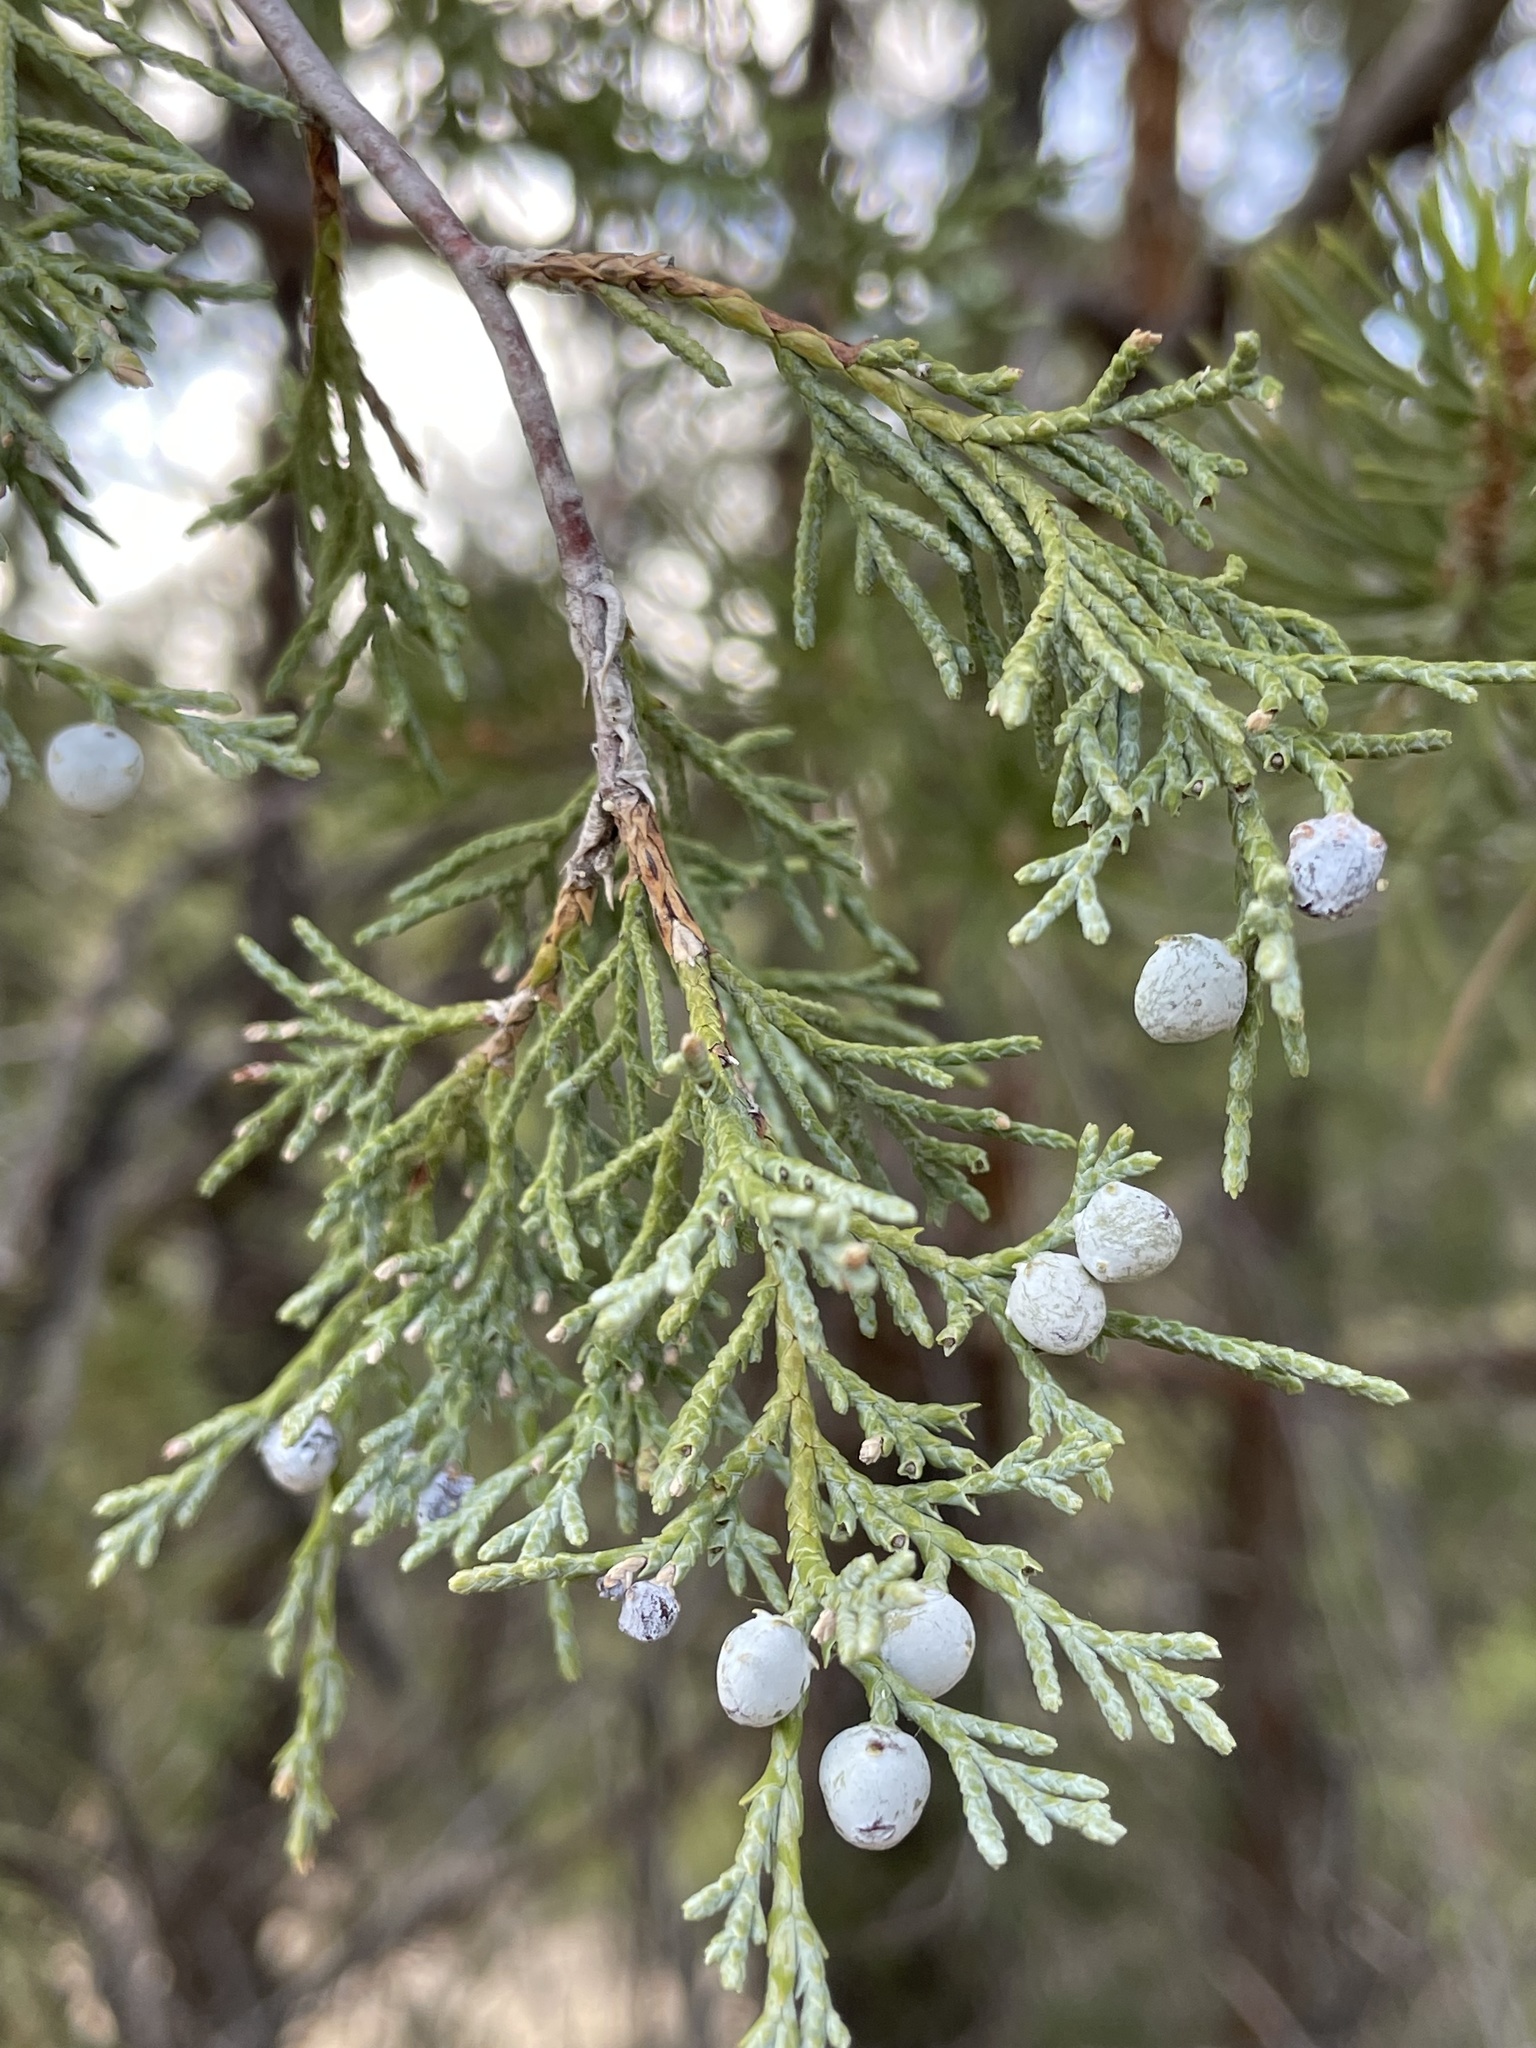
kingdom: Plantae
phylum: Tracheophyta
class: Pinopsida
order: Pinales
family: Cupressaceae
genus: Juniperus
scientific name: Juniperus scopulorum
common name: Rocky mountain juniper
